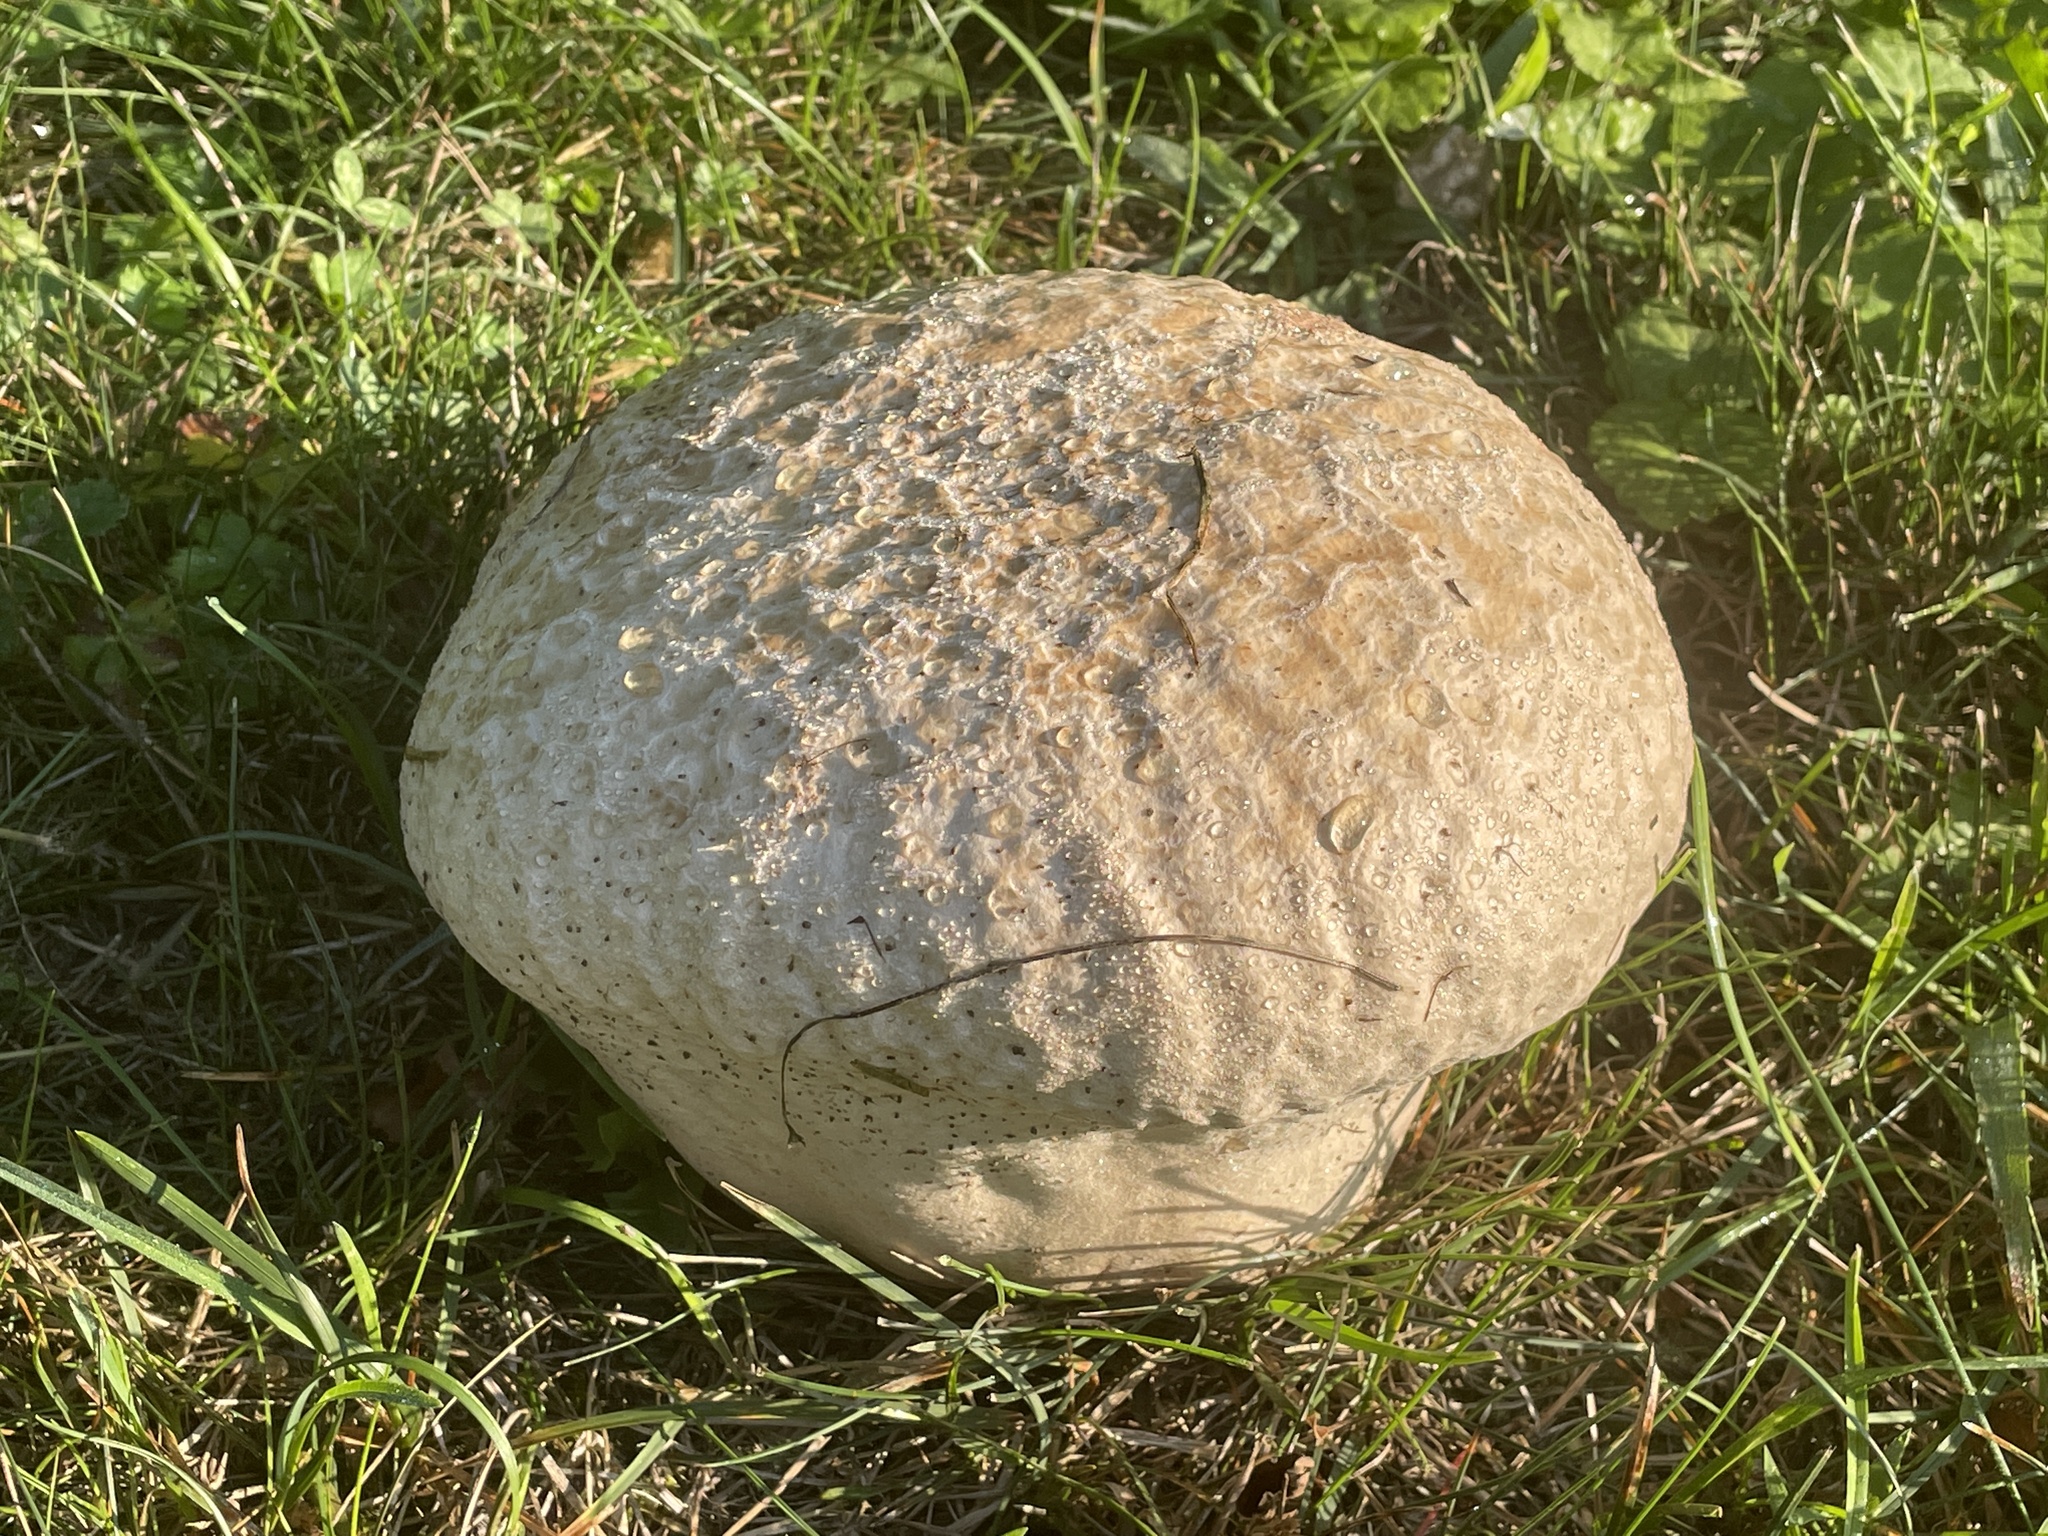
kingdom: Fungi
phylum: Basidiomycota
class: Agaricomycetes
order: Agaricales
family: Lycoperdaceae
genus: Calvatia
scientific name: Calvatia craniiformis
